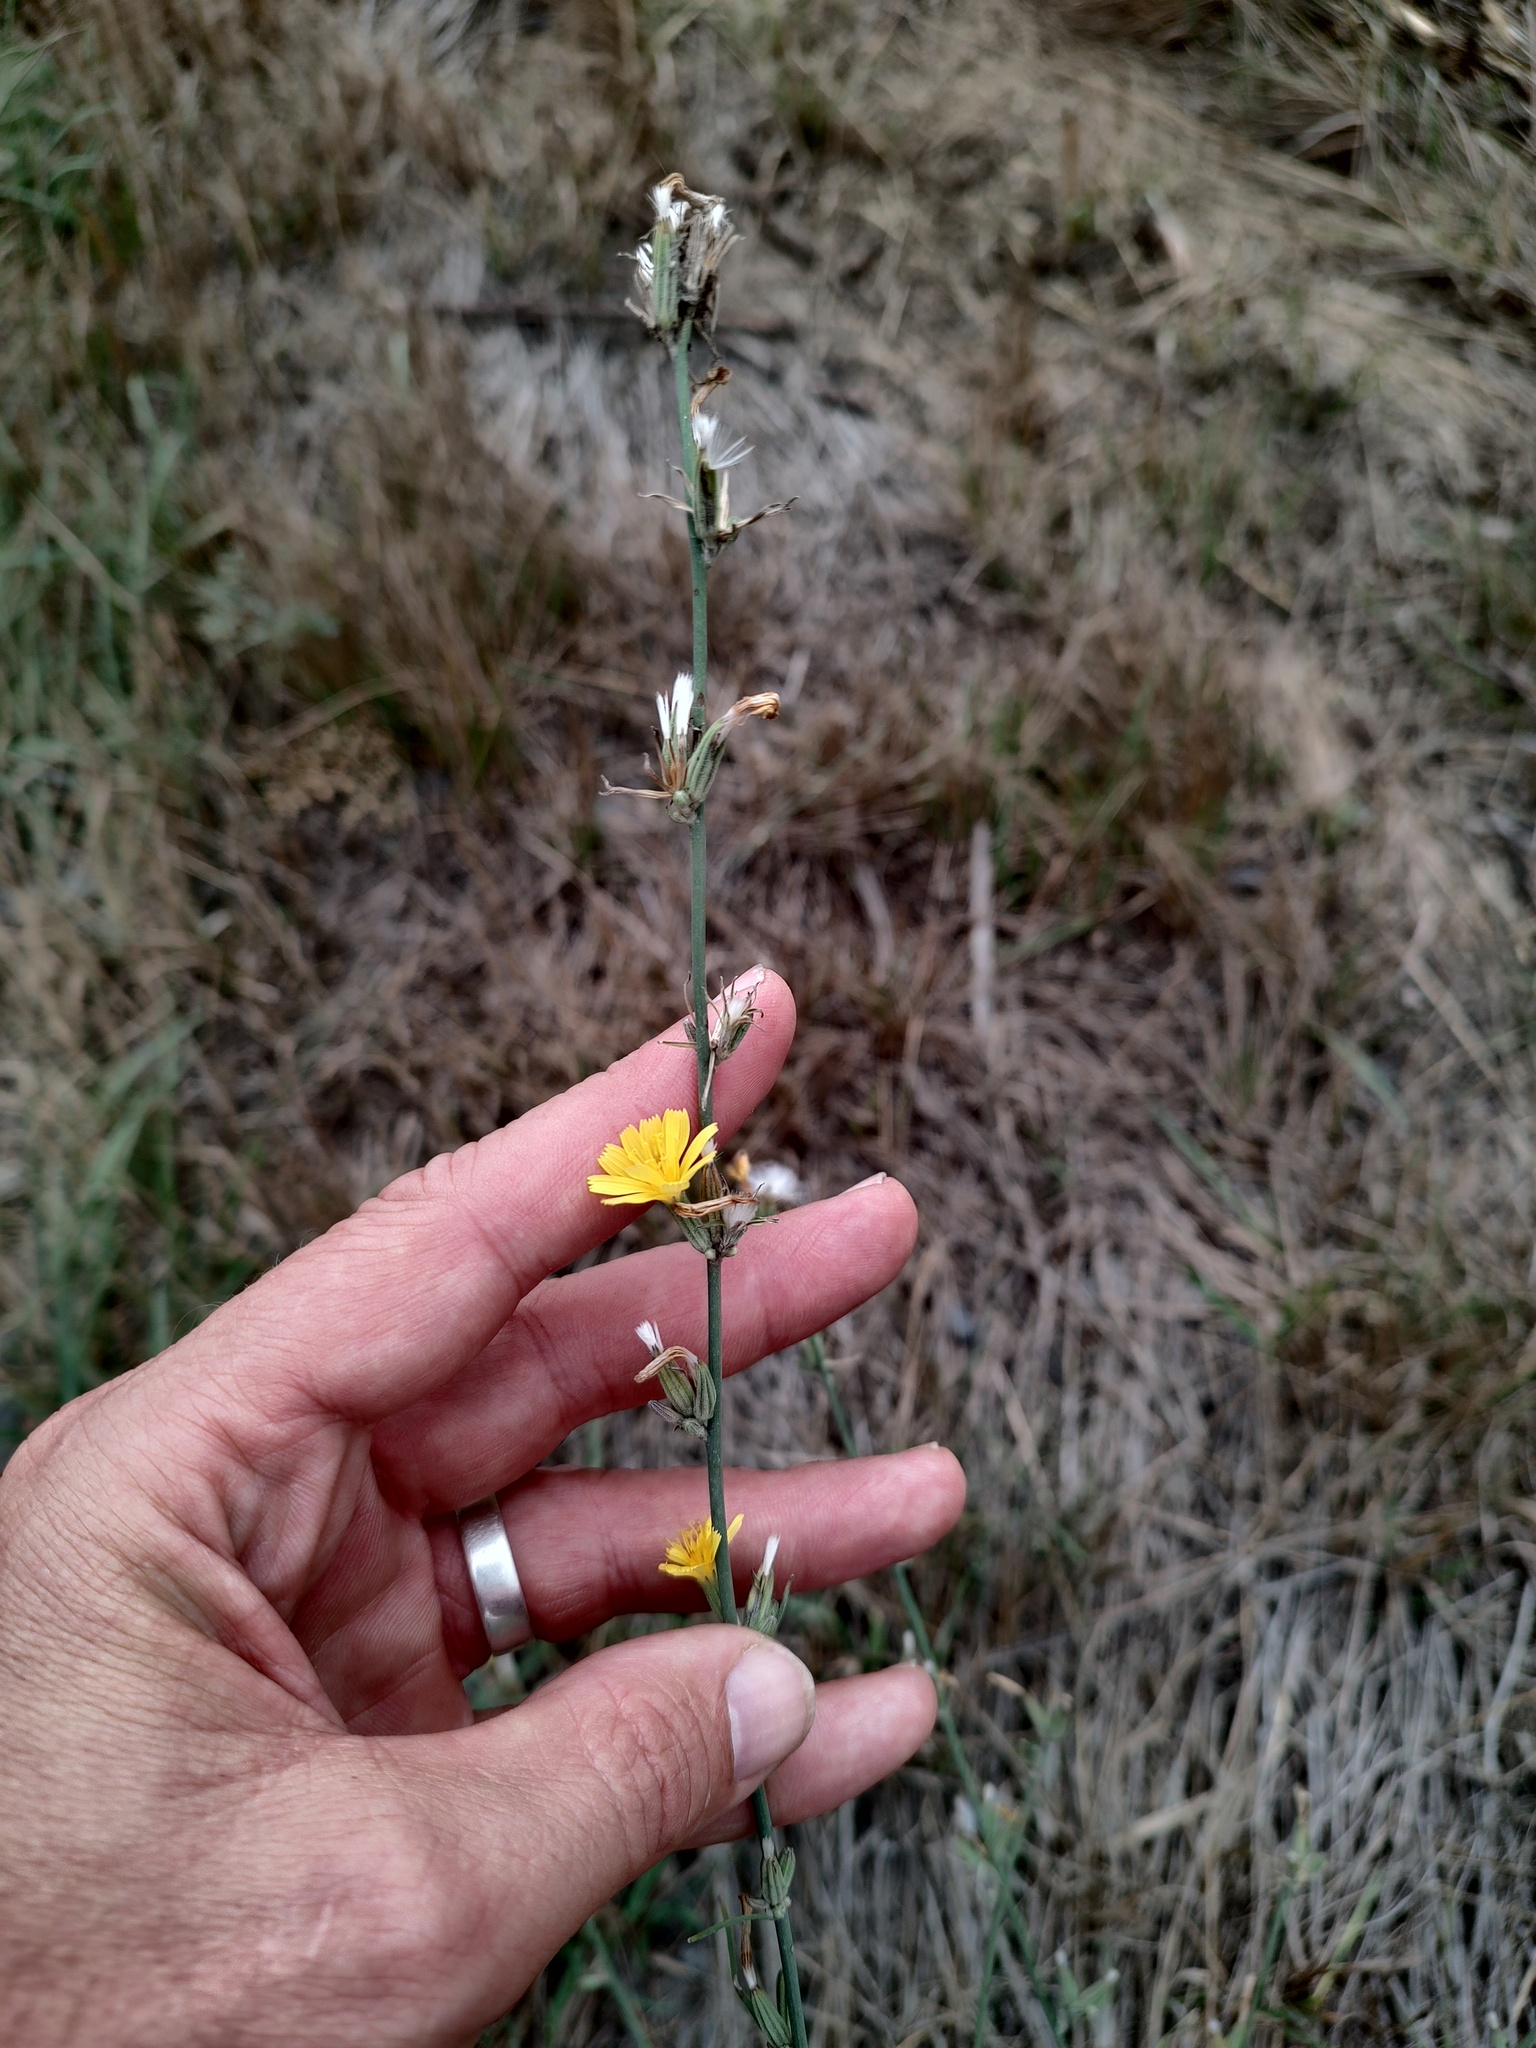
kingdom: Plantae
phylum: Tracheophyta
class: Magnoliopsida
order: Asterales
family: Asteraceae
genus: Chondrilla
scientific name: Chondrilla juncea
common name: Skeleton weed
